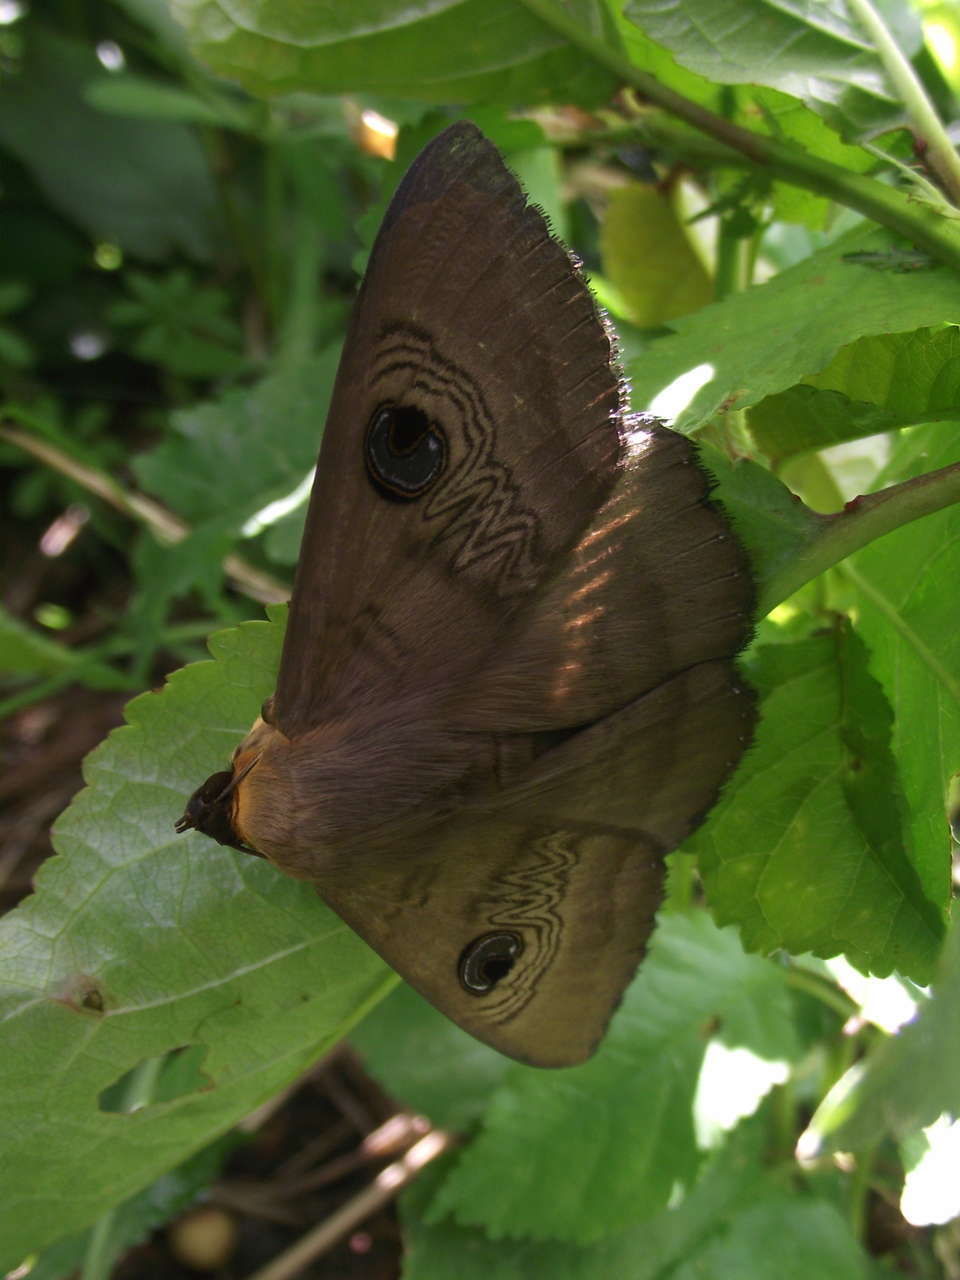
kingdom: Animalia
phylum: Arthropoda
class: Insecta
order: Lepidoptera
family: Erebidae
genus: Dasypodia
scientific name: Dasypodia selenophora
